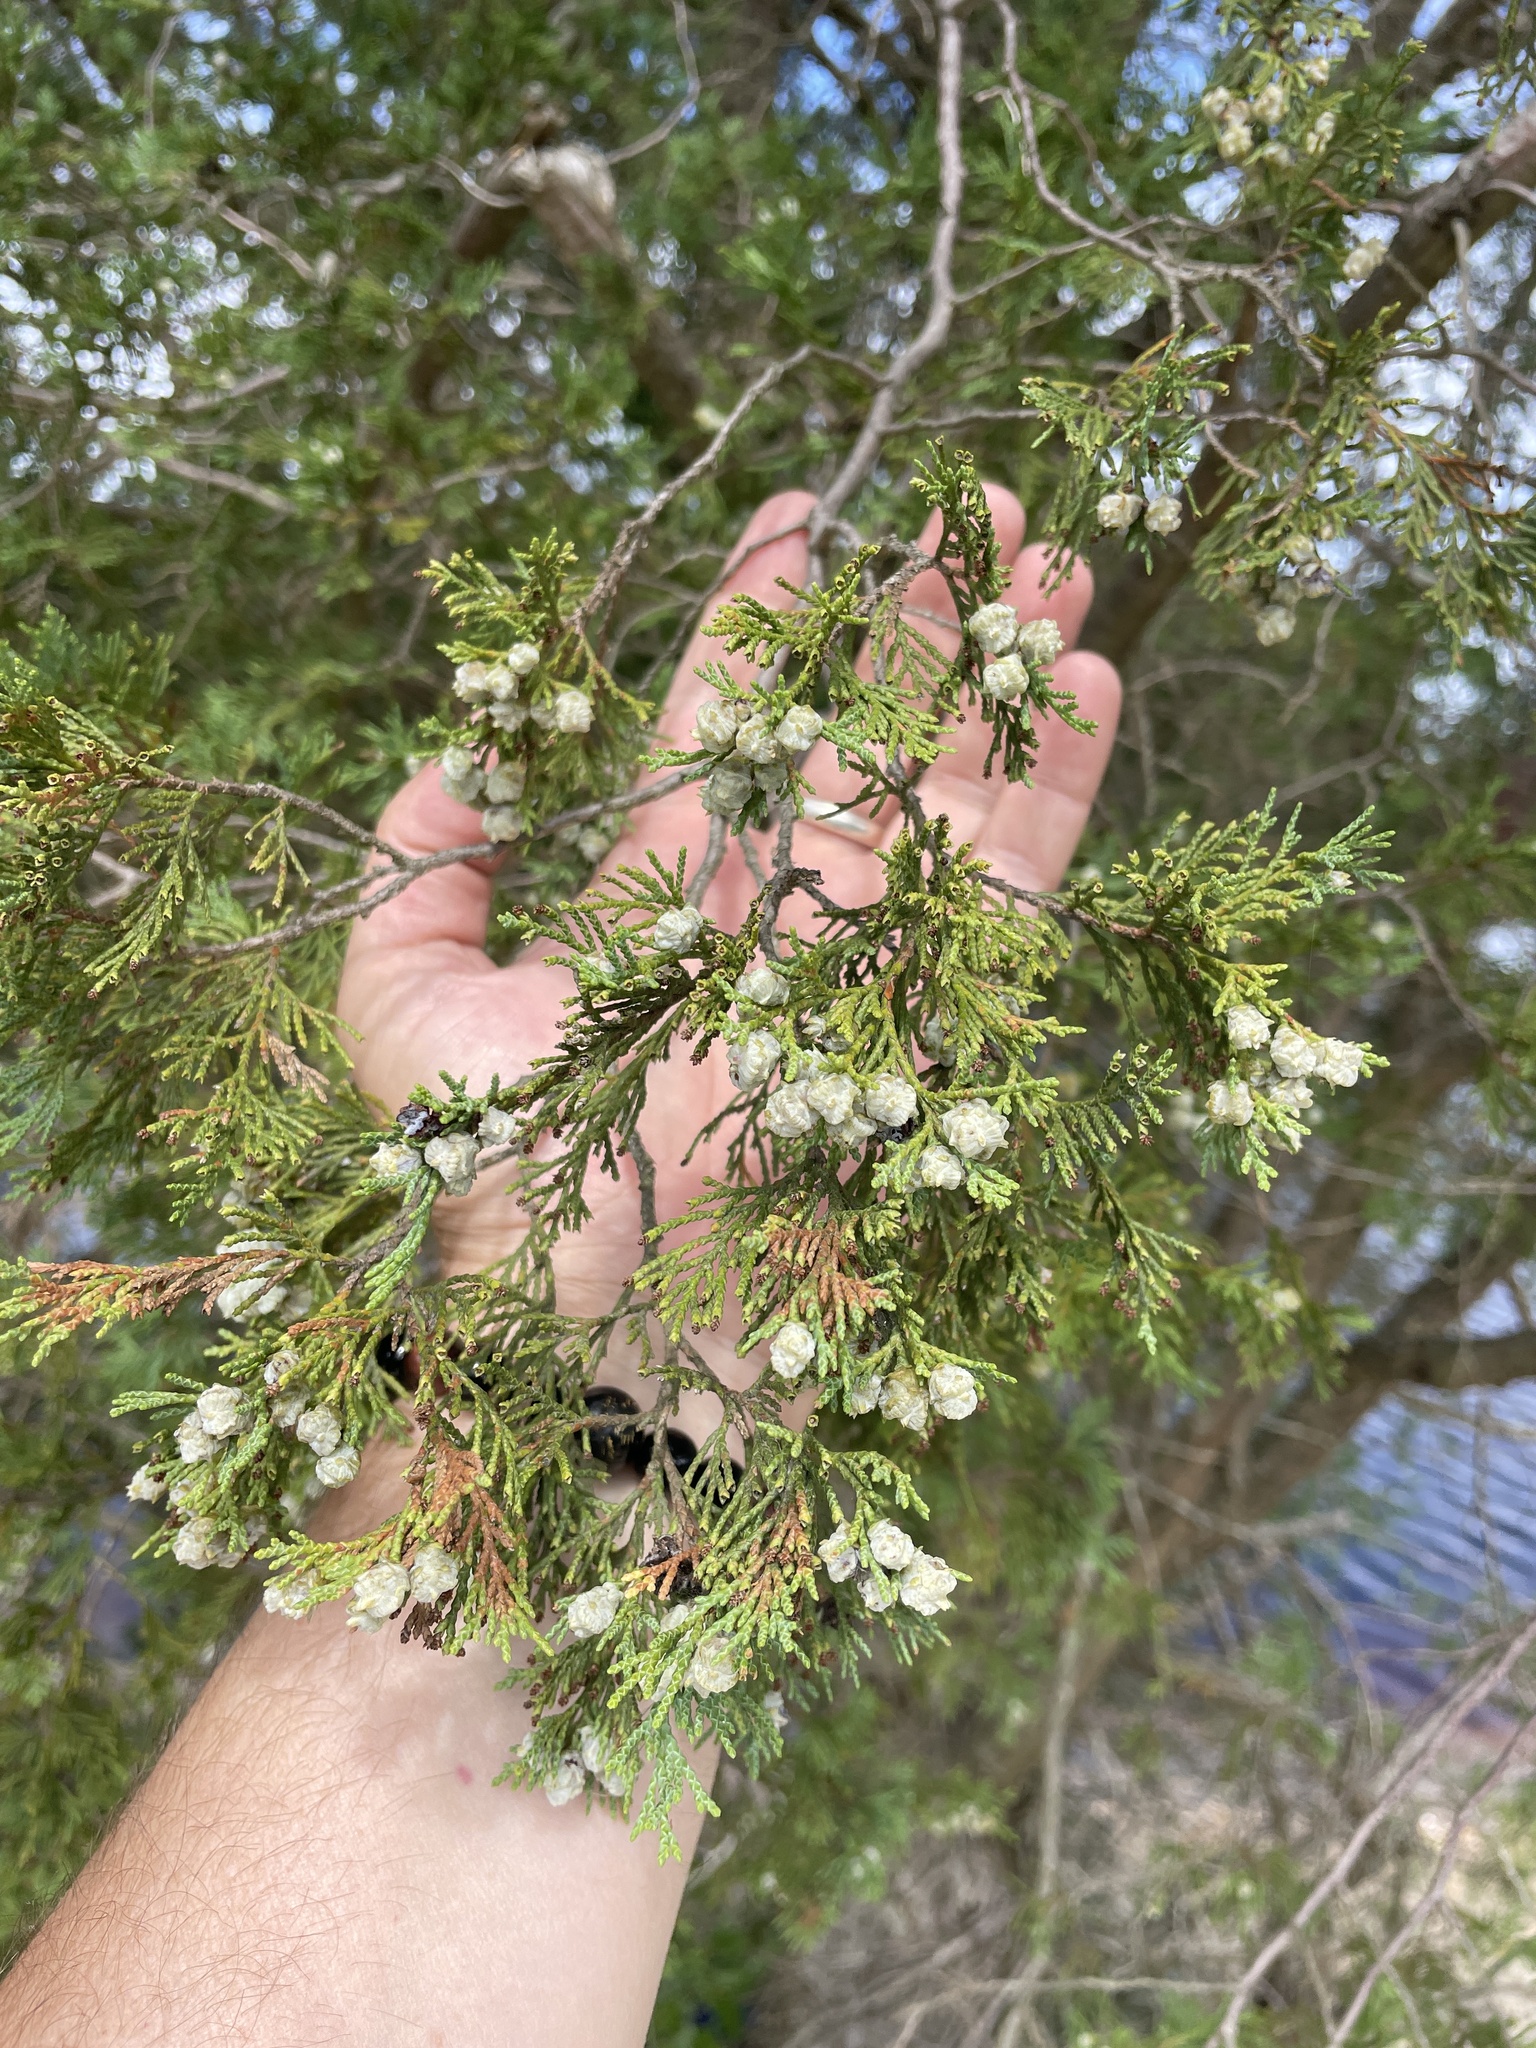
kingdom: Plantae
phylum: Tracheophyta
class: Pinopsida
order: Pinales
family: Cupressaceae
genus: Chamaecyparis
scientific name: Chamaecyparis thyoides
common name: Atlantic white cedar
